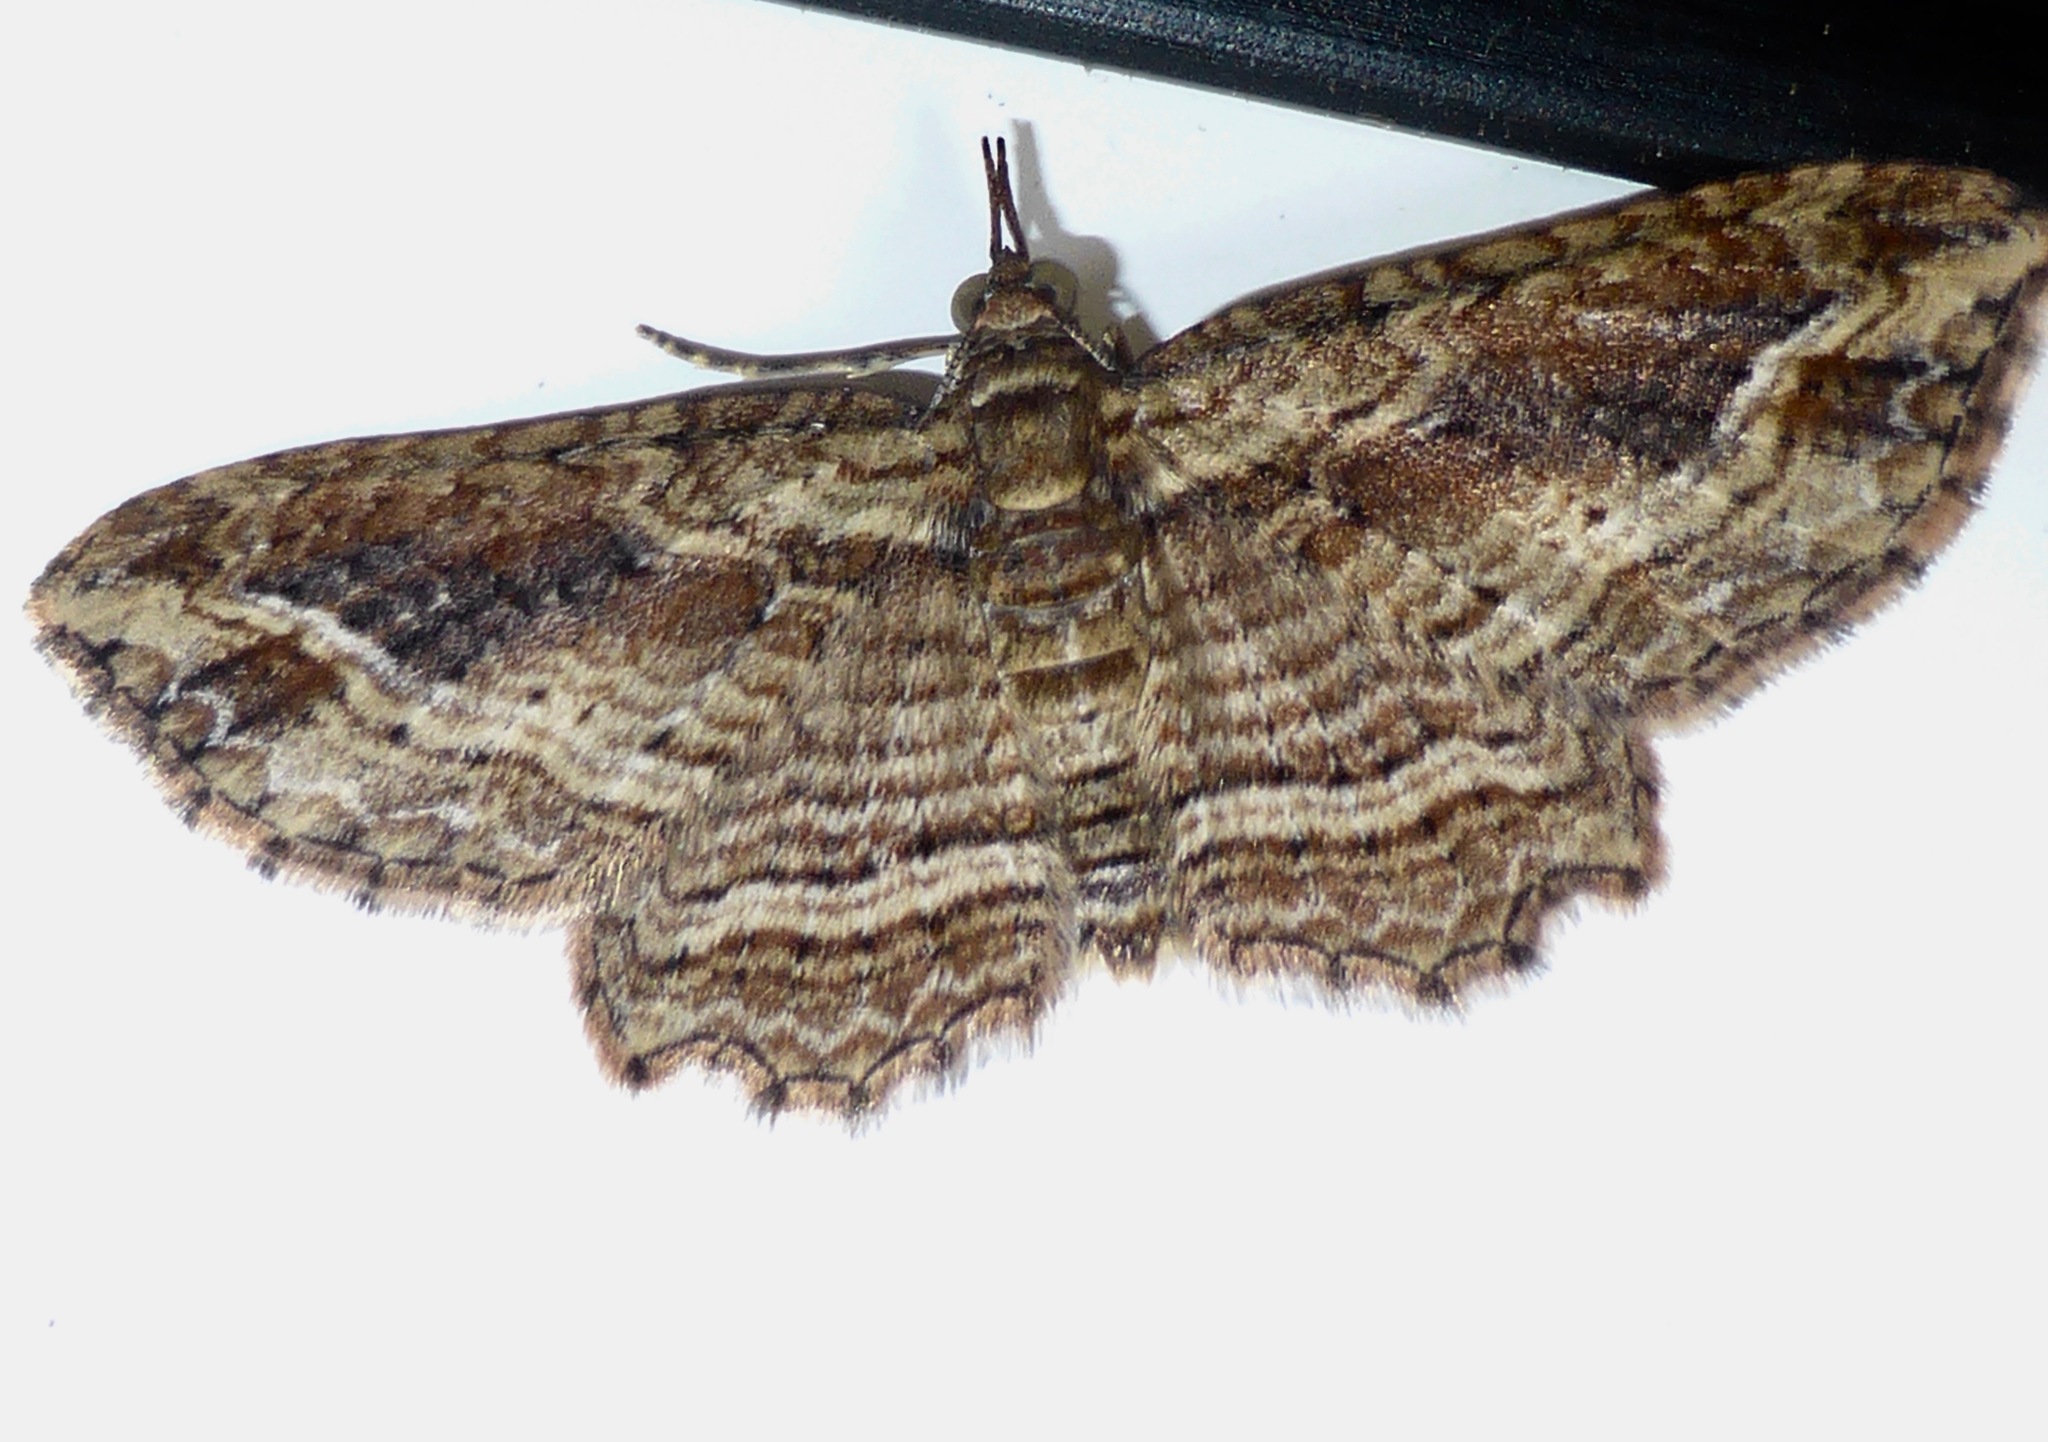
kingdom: Animalia
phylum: Arthropoda
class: Insecta
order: Lepidoptera
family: Geometridae
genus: Chloroclystis
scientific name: Chloroclystis filata
